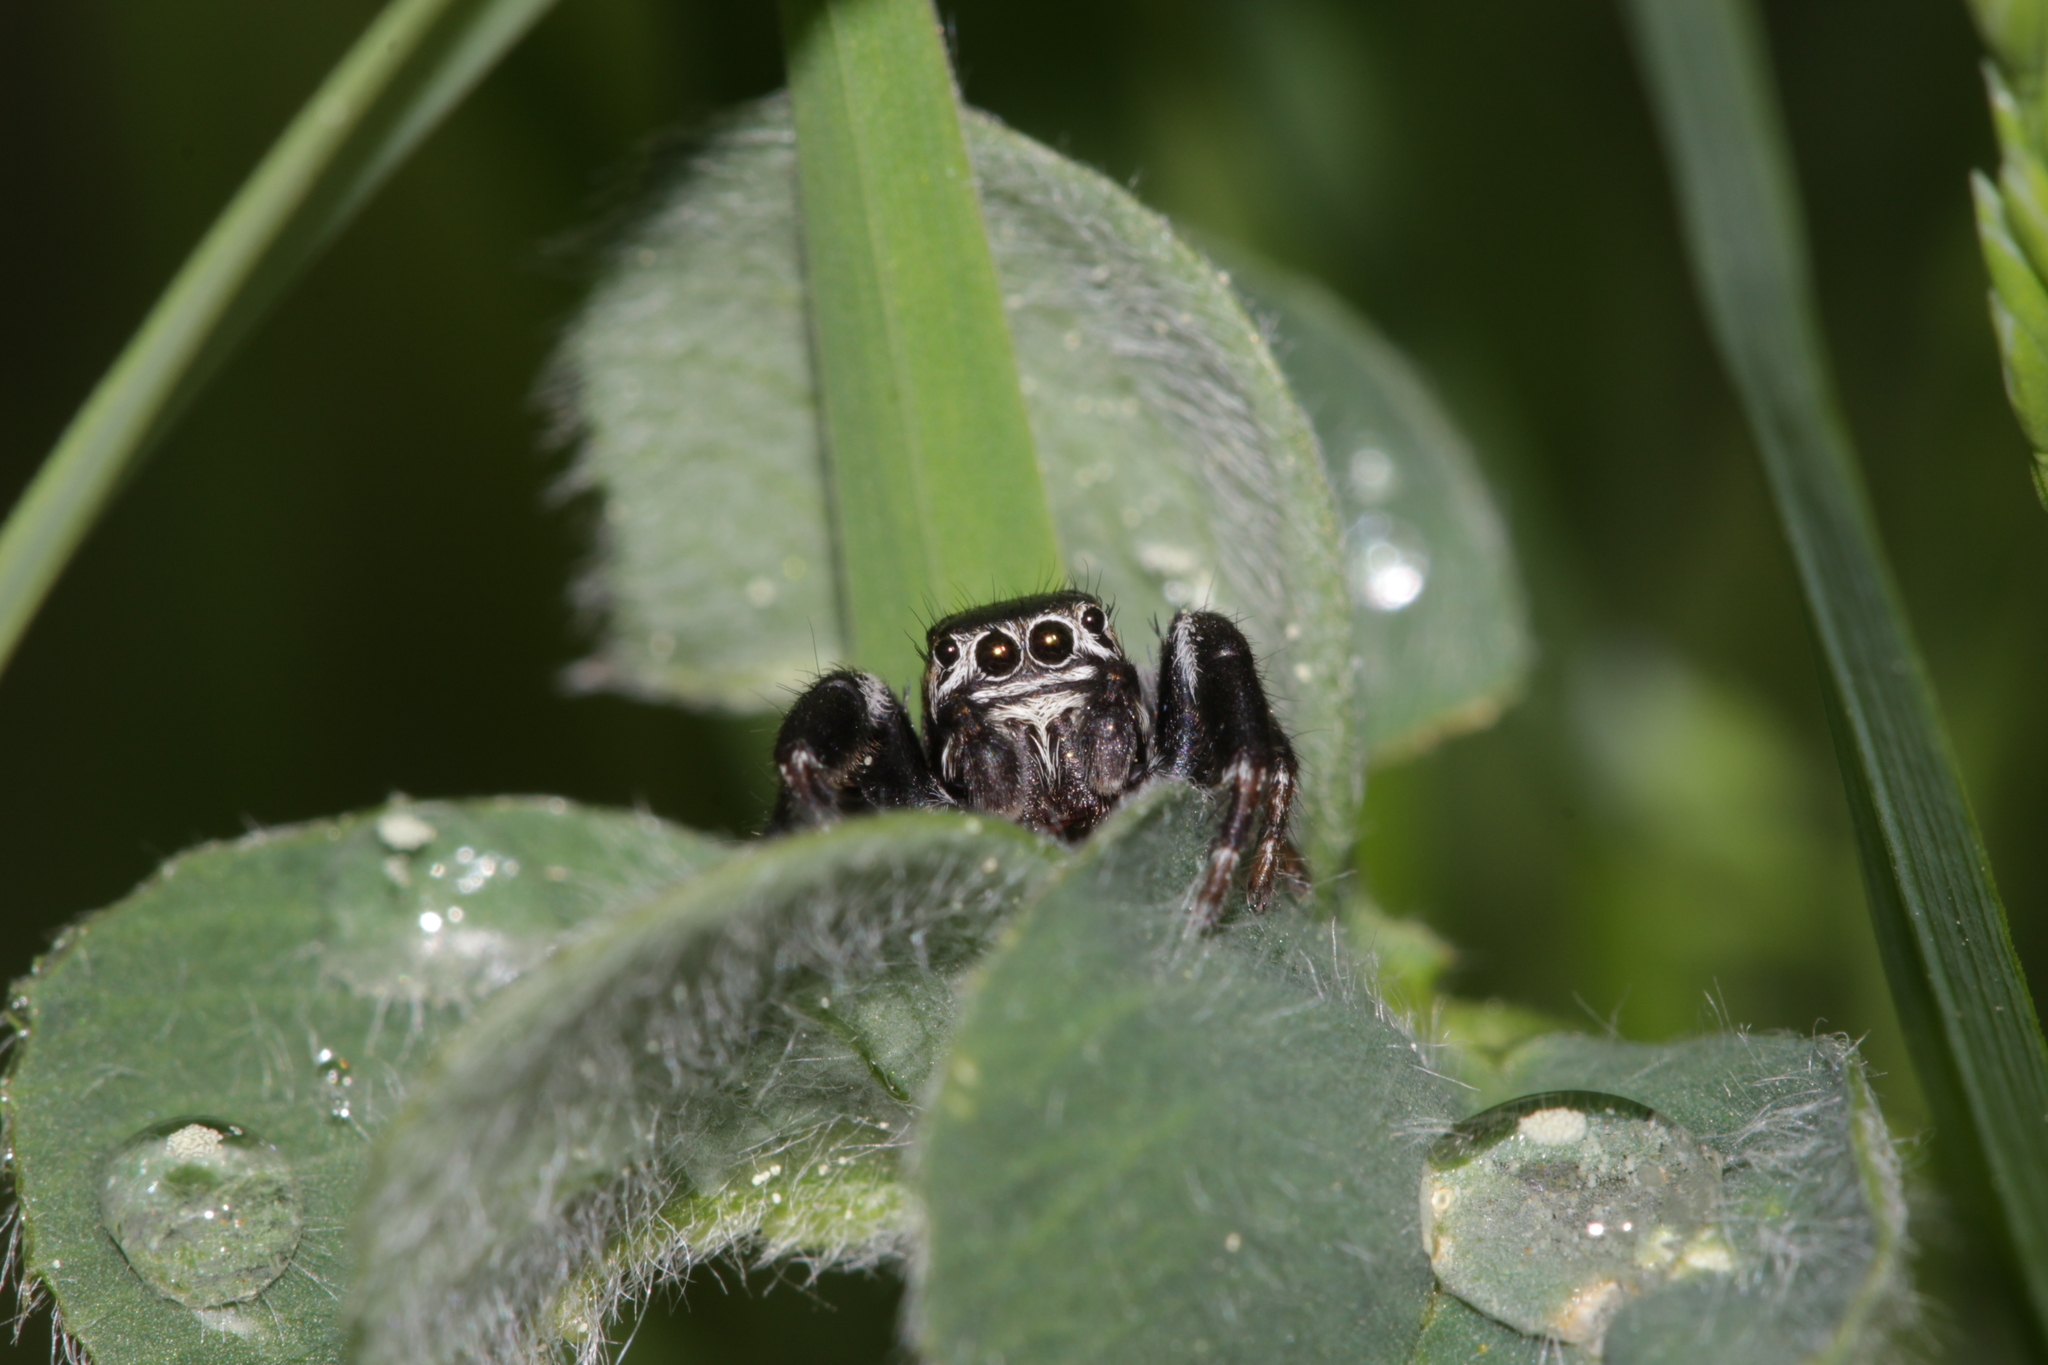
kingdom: Animalia
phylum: Arthropoda
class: Arachnida
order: Araneae
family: Salticidae
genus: Evarcha
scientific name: Evarcha arcuata
